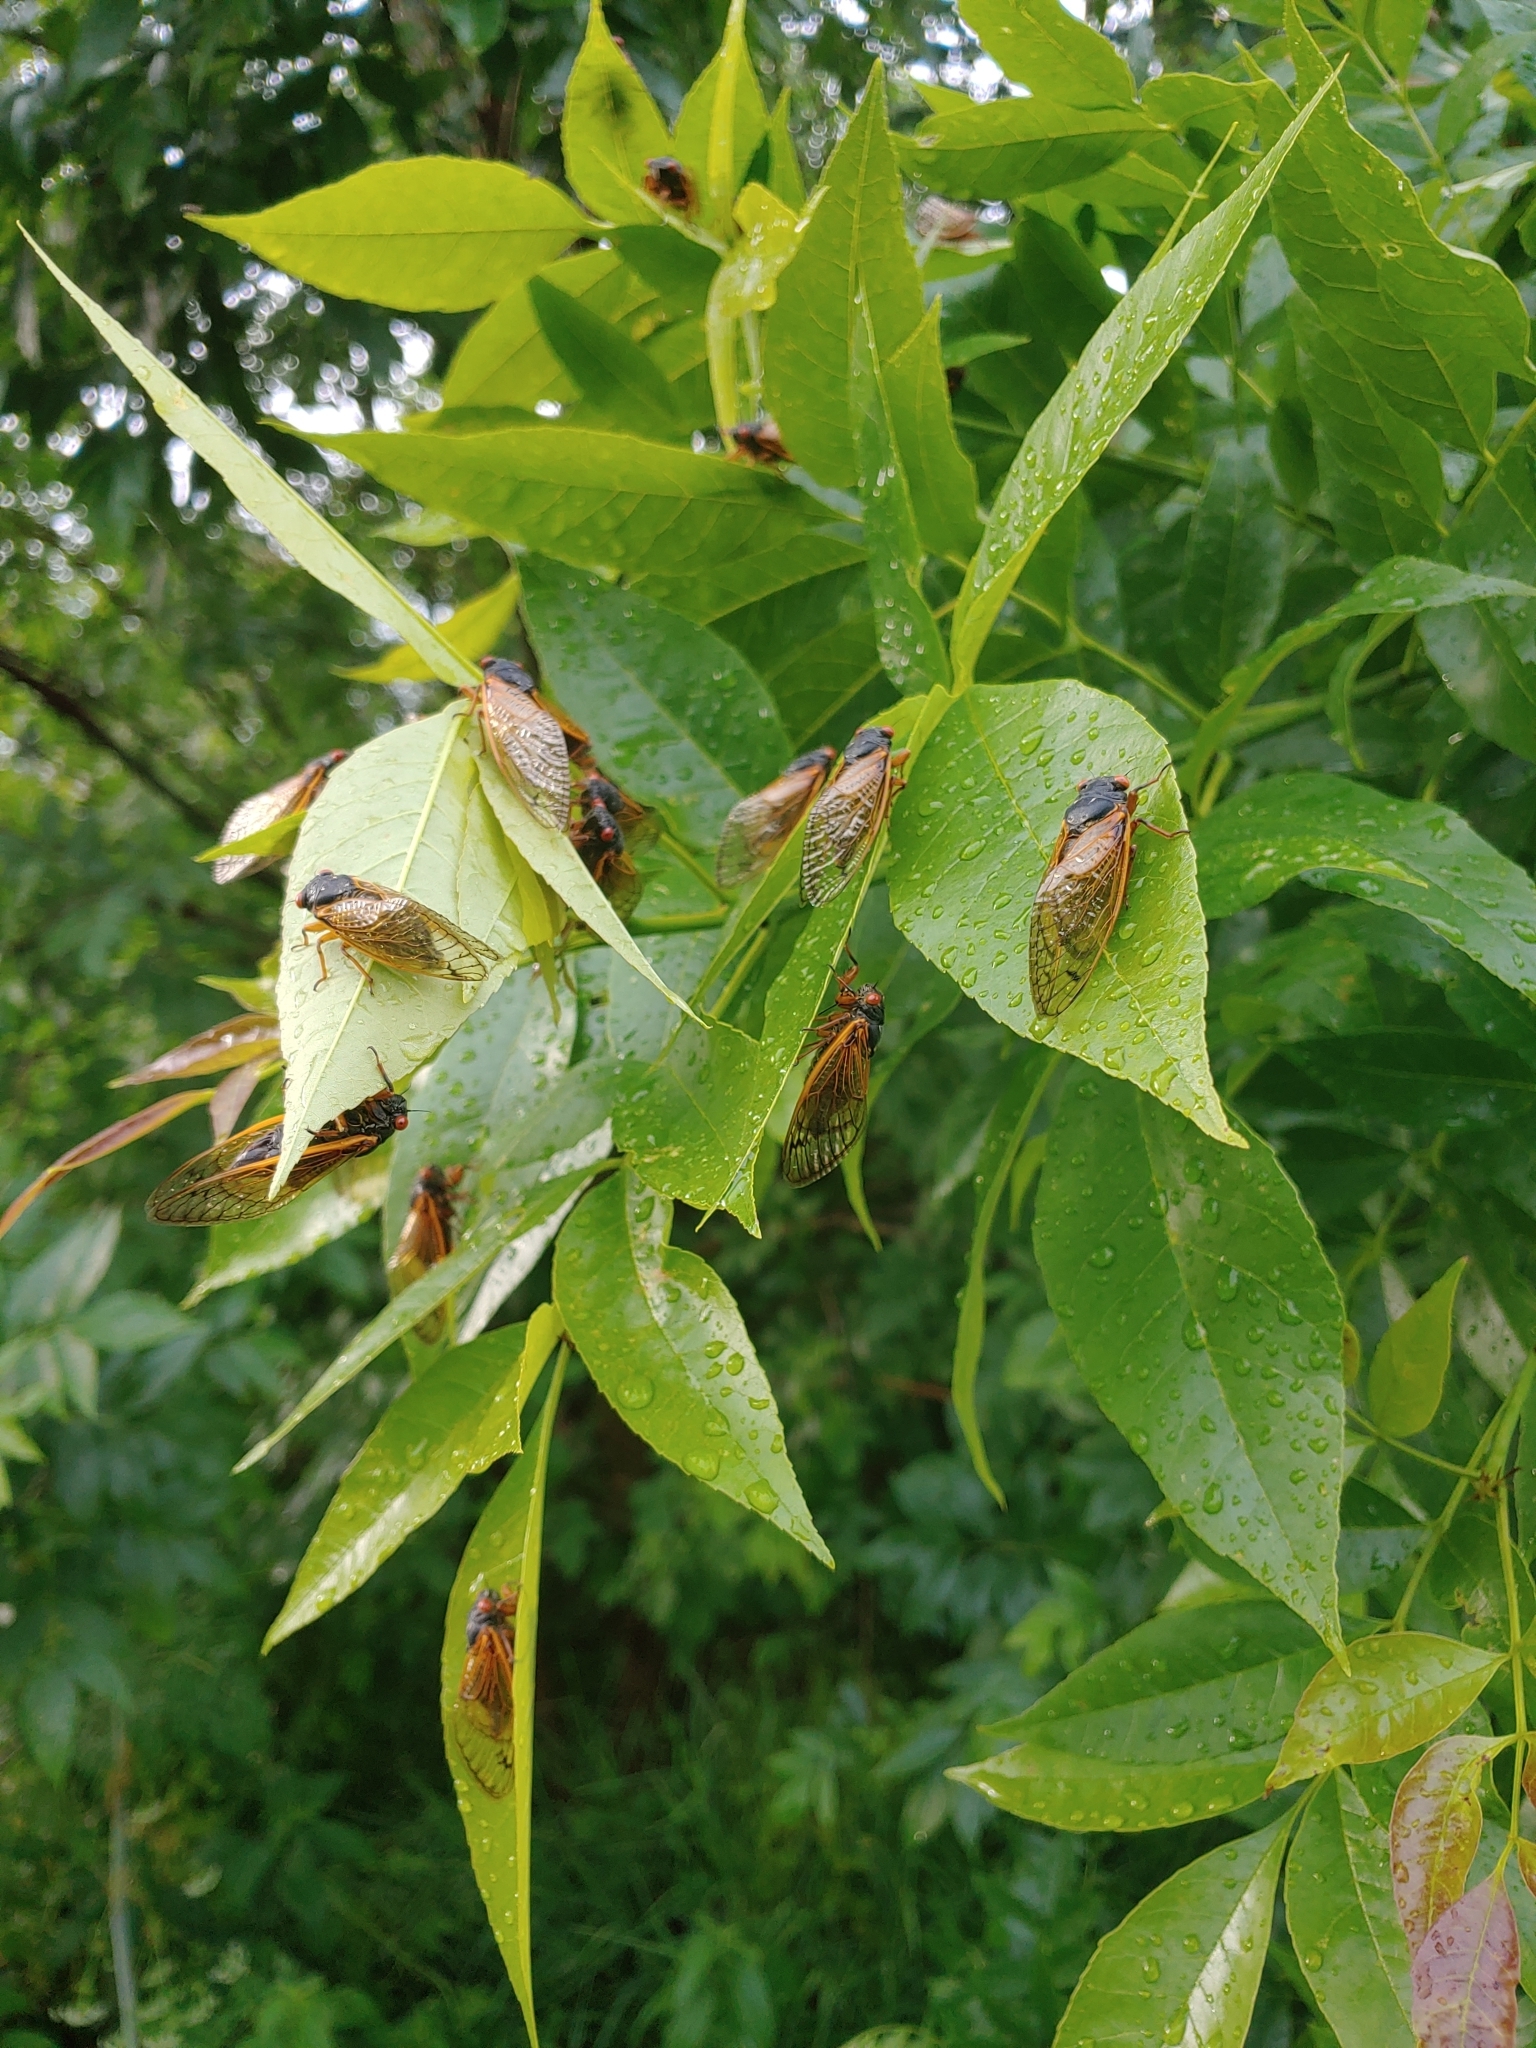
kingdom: Animalia
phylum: Arthropoda
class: Insecta
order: Hemiptera
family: Cicadidae
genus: Magicicada
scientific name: Magicicada
